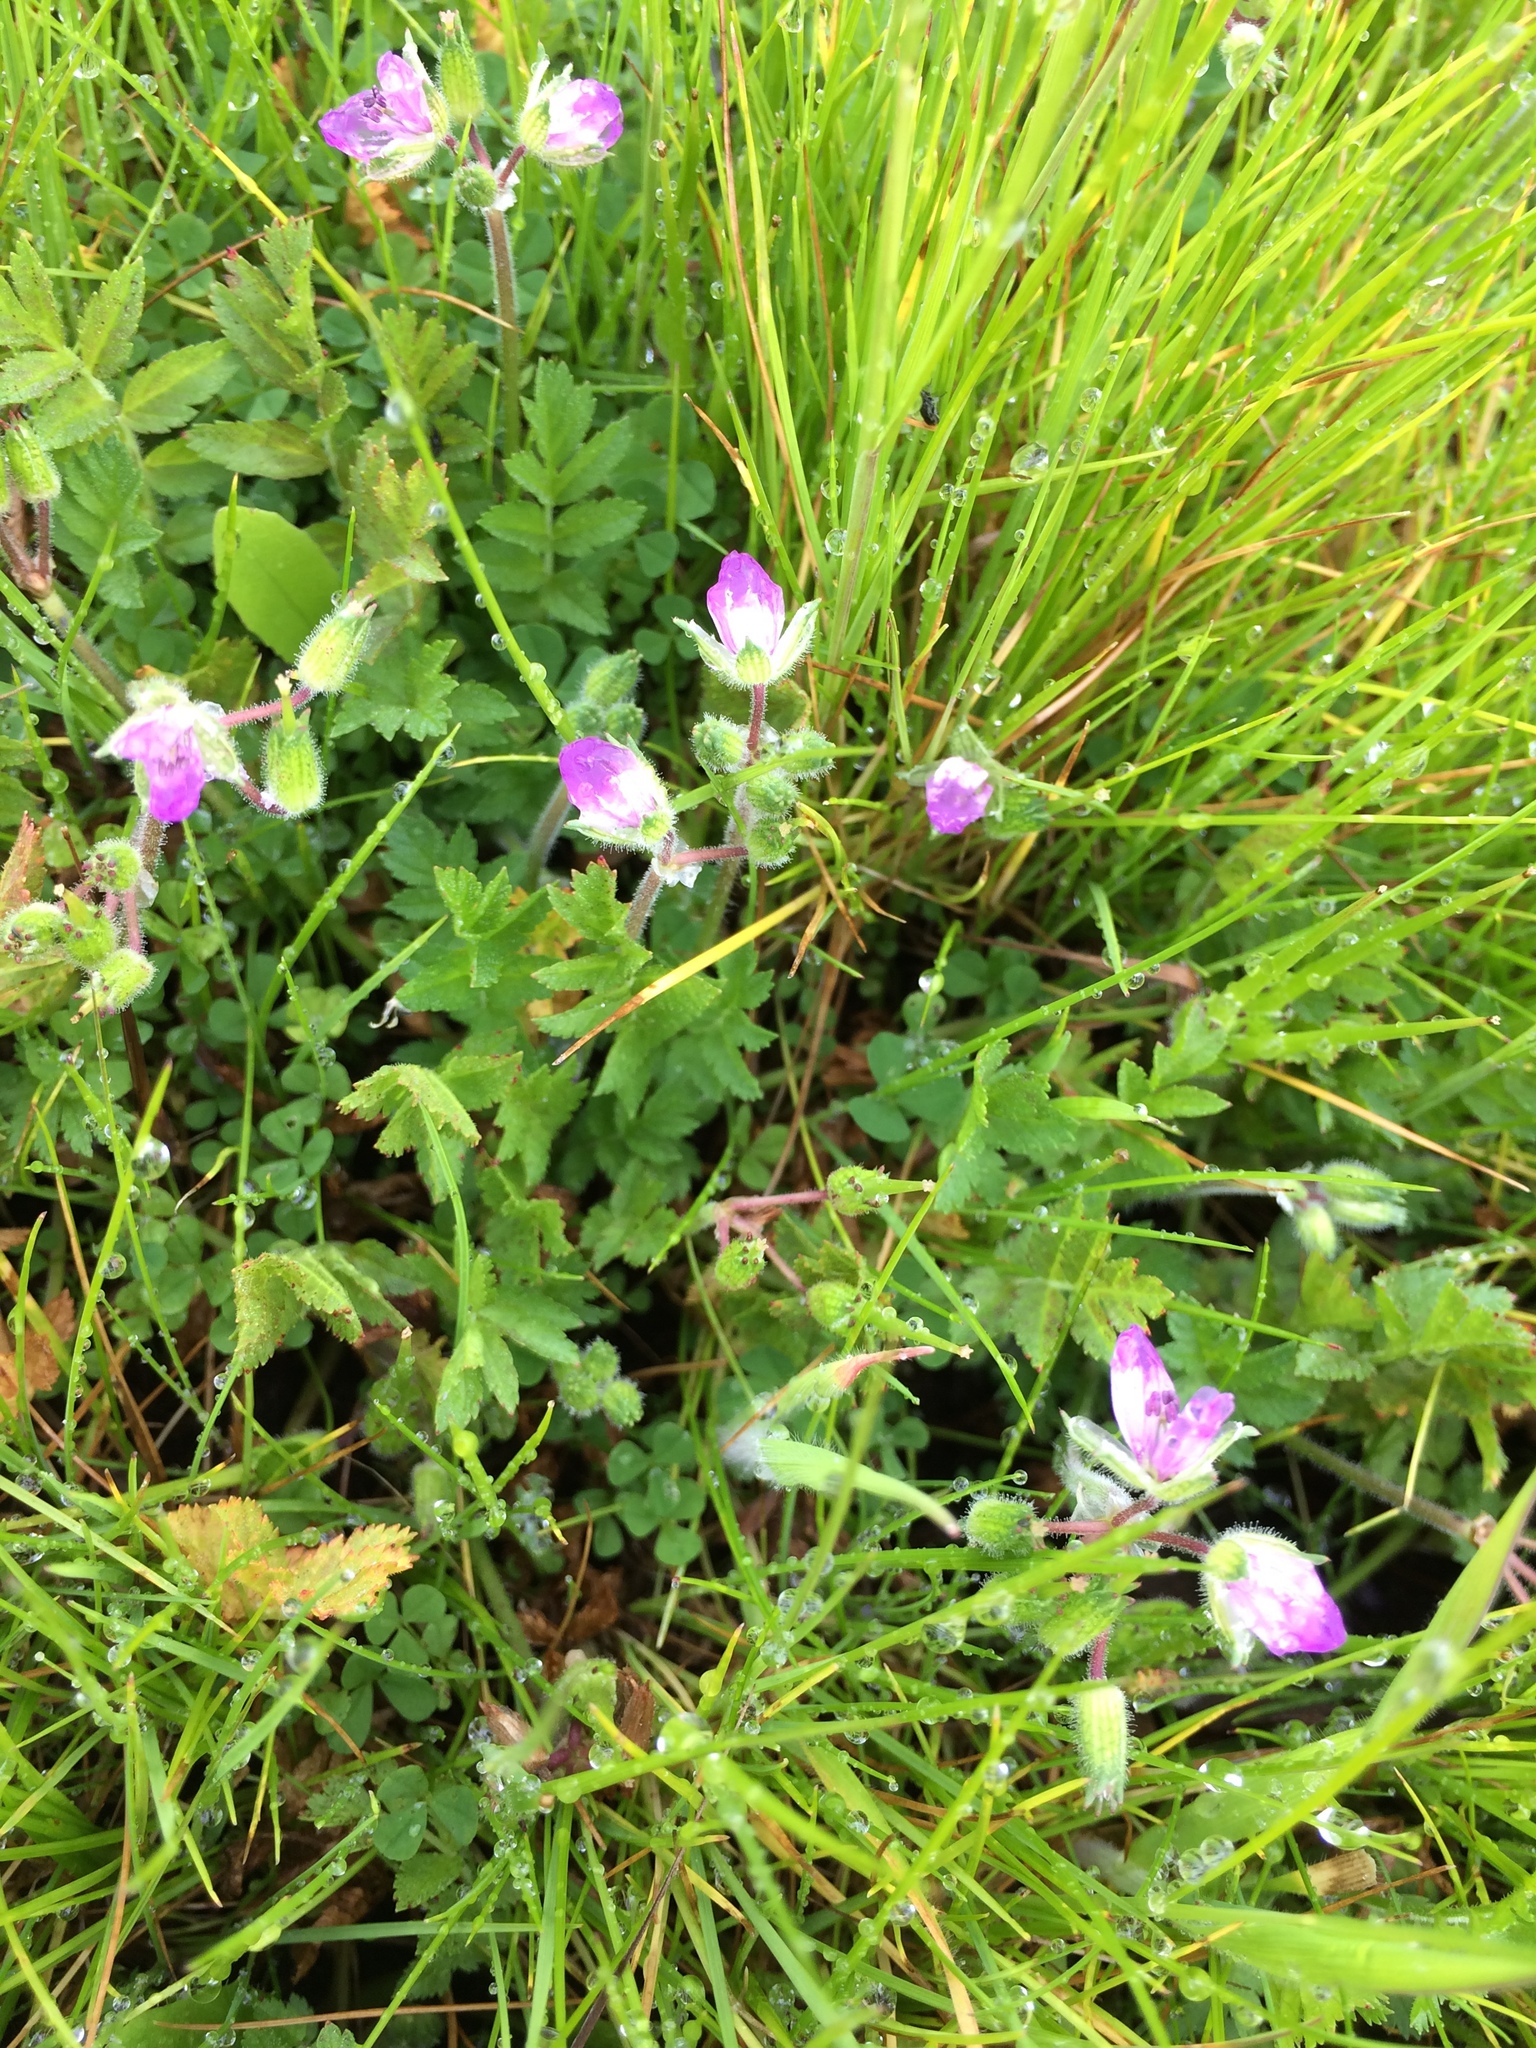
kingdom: Plantae
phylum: Tracheophyta
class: Magnoliopsida
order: Geraniales
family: Geraniaceae
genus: Erodium
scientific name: Erodium moschatum
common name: Musk stork's-bill
